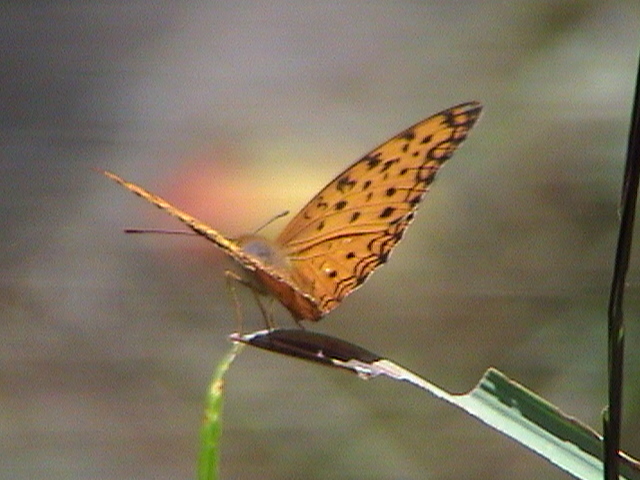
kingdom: Animalia
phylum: Arthropoda
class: Insecta
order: Lepidoptera
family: Nymphalidae
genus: Phalanta
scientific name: Phalanta phalantha
